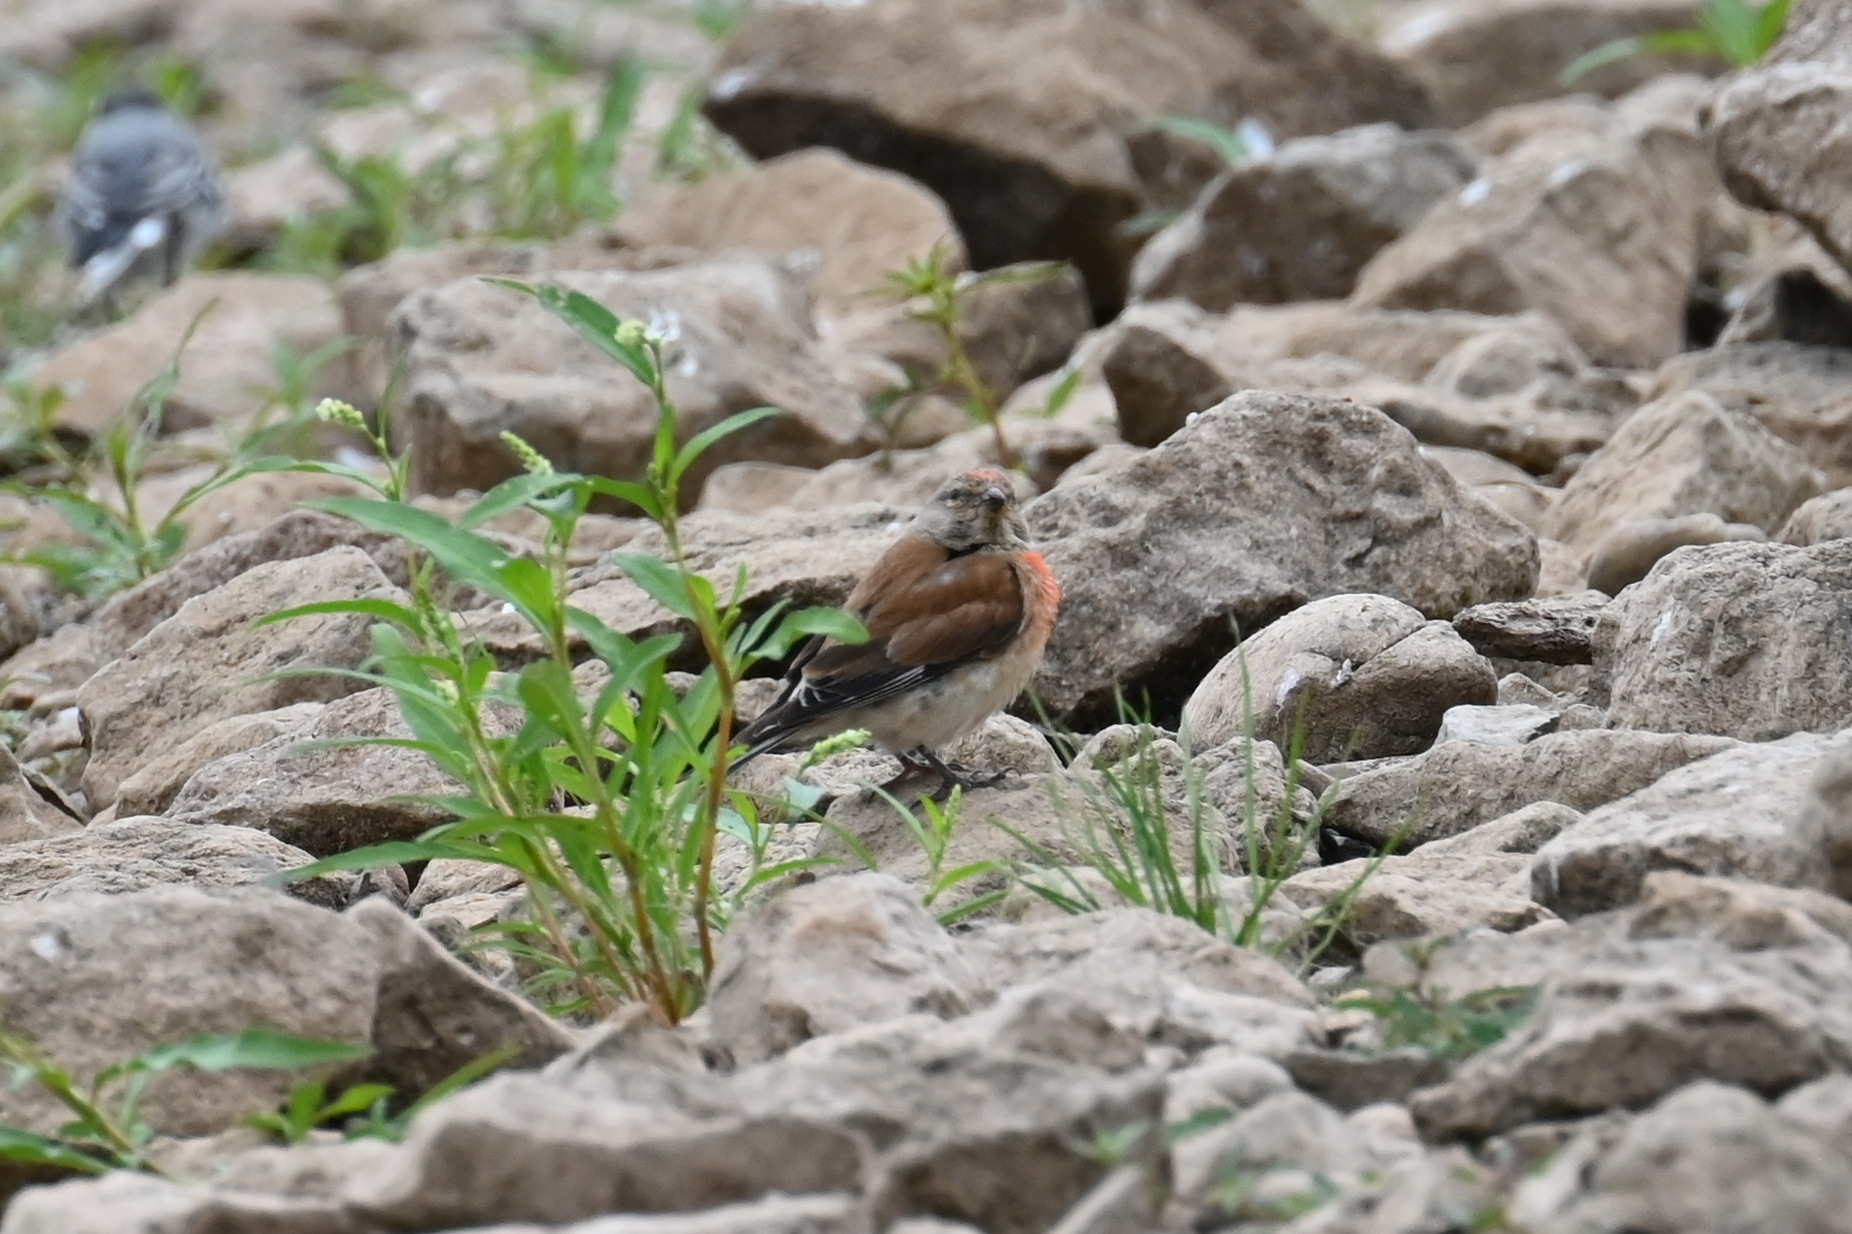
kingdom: Animalia
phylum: Chordata
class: Aves
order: Passeriformes
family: Fringillidae
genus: Linaria
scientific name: Linaria cannabina
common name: Common linnet
